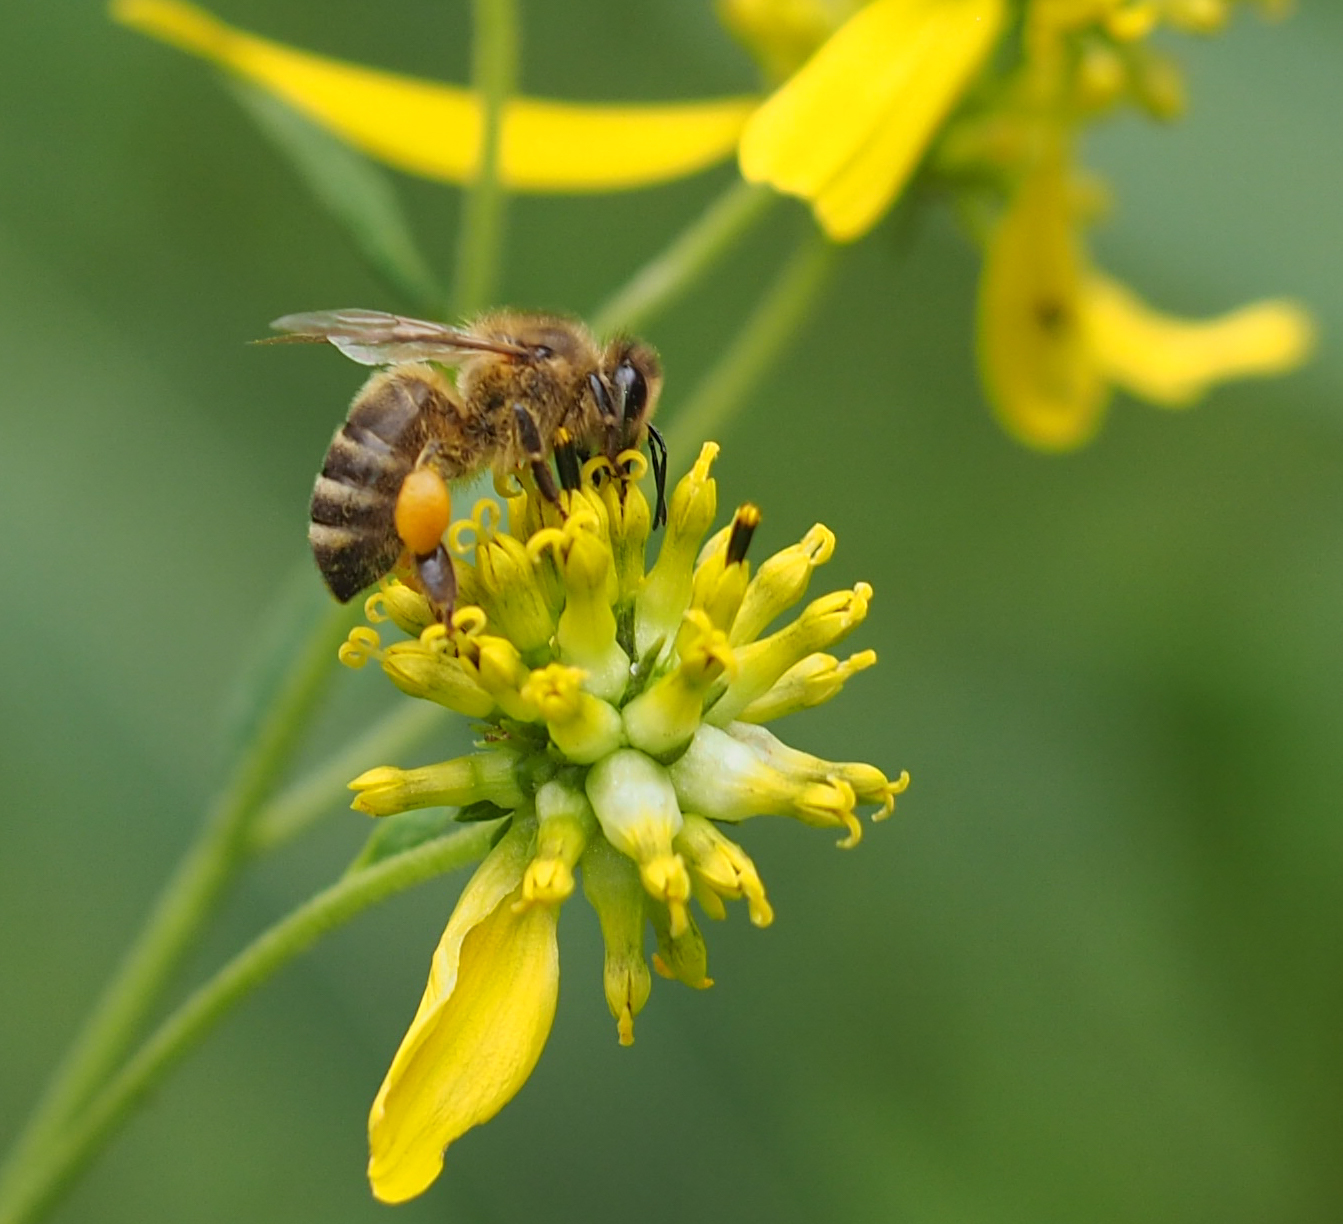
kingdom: Animalia
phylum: Arthropoda
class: Insecta
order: Hymenoptera
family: Apidae
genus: Apis
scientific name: Apis mellifera
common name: Honey bee
